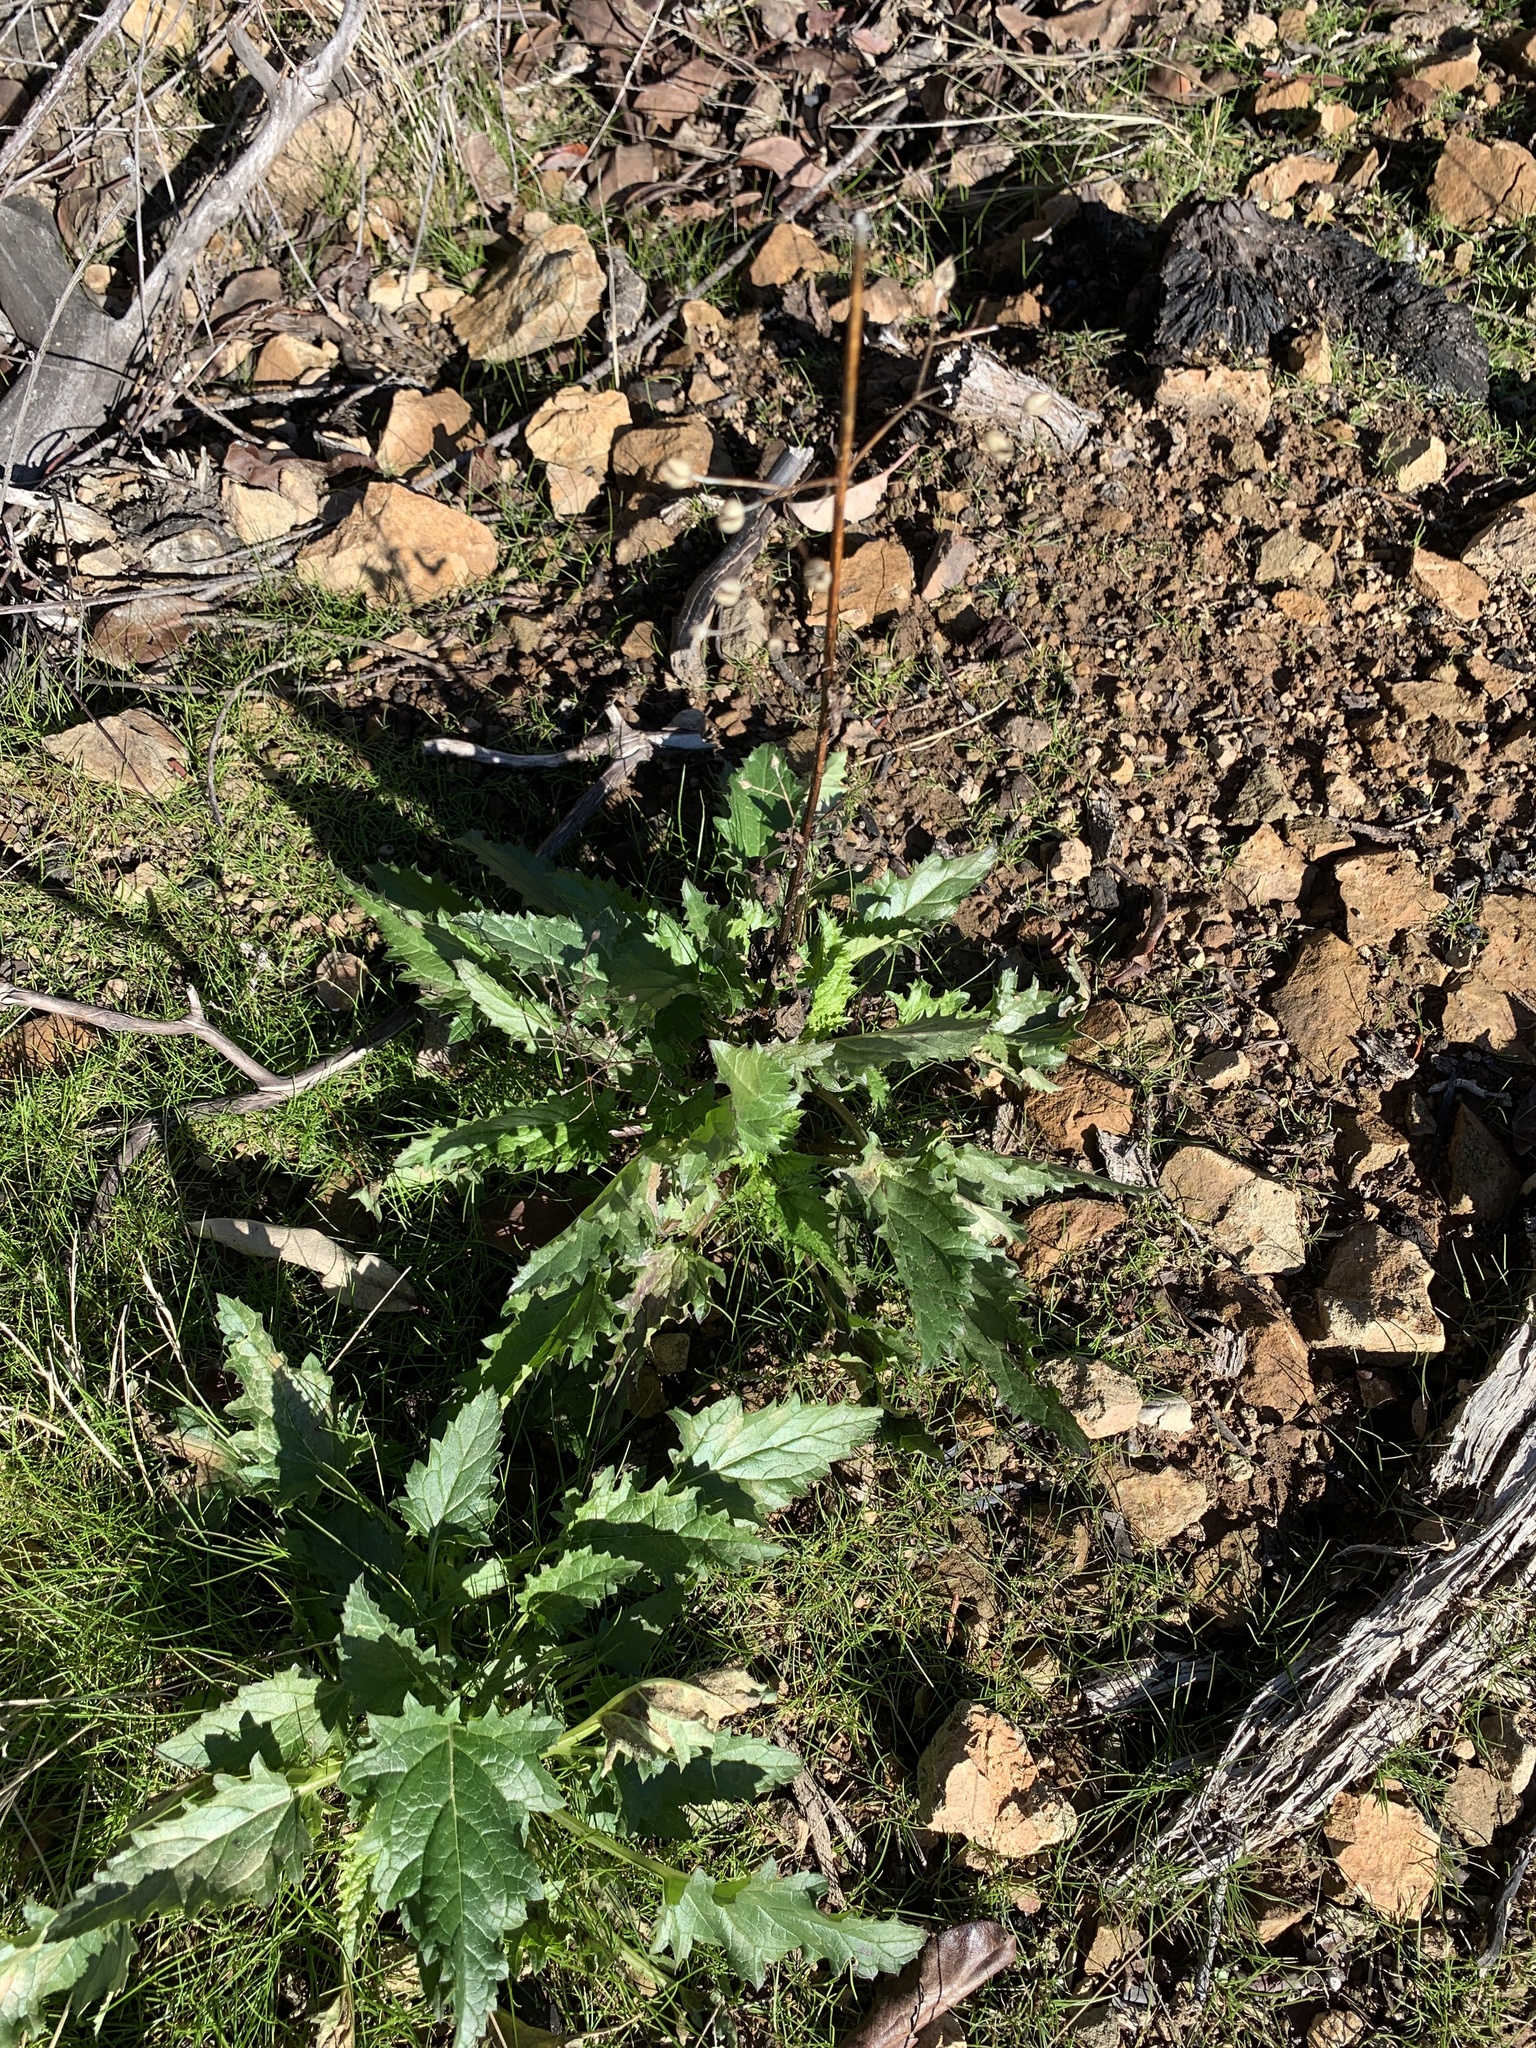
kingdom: Plantae
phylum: Tracheophyta
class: Magnoliopsida
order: Lamiales
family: Scrophulariaceae
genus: Scrophularia
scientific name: Scrophularia californica
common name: California figwort
